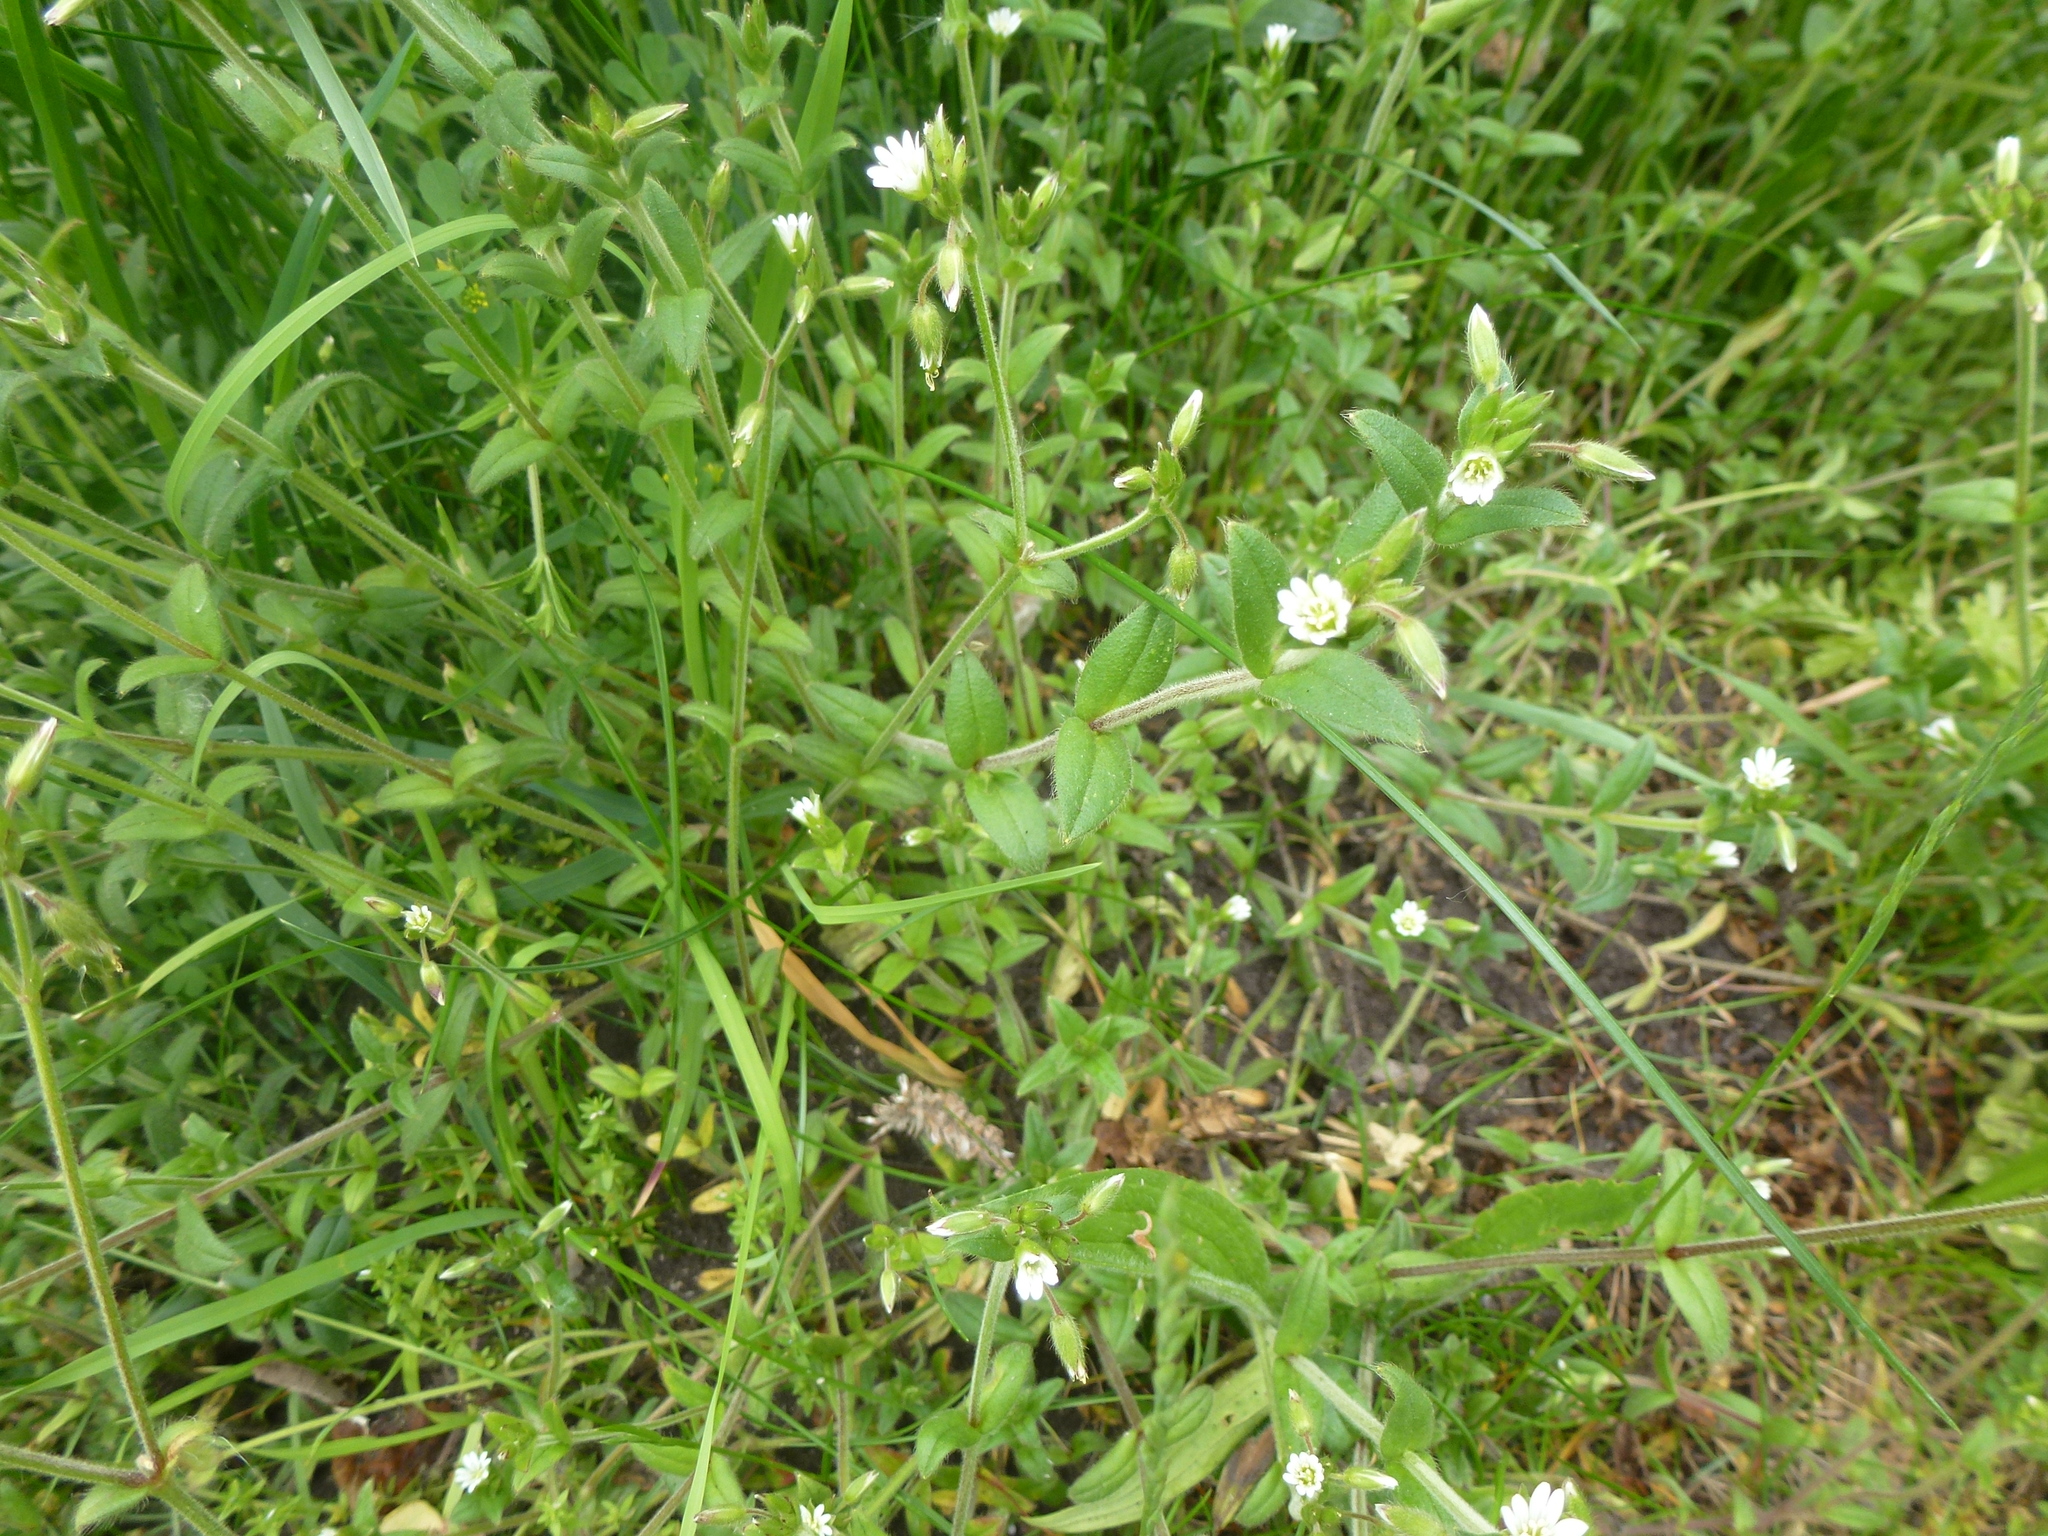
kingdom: Plantae
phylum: Tracheophyta
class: Magnoliopsida
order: Caryophyllales
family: Caryophyllaceae
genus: Cerastium
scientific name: Cerastium fontanum
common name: Common mouse-ear
